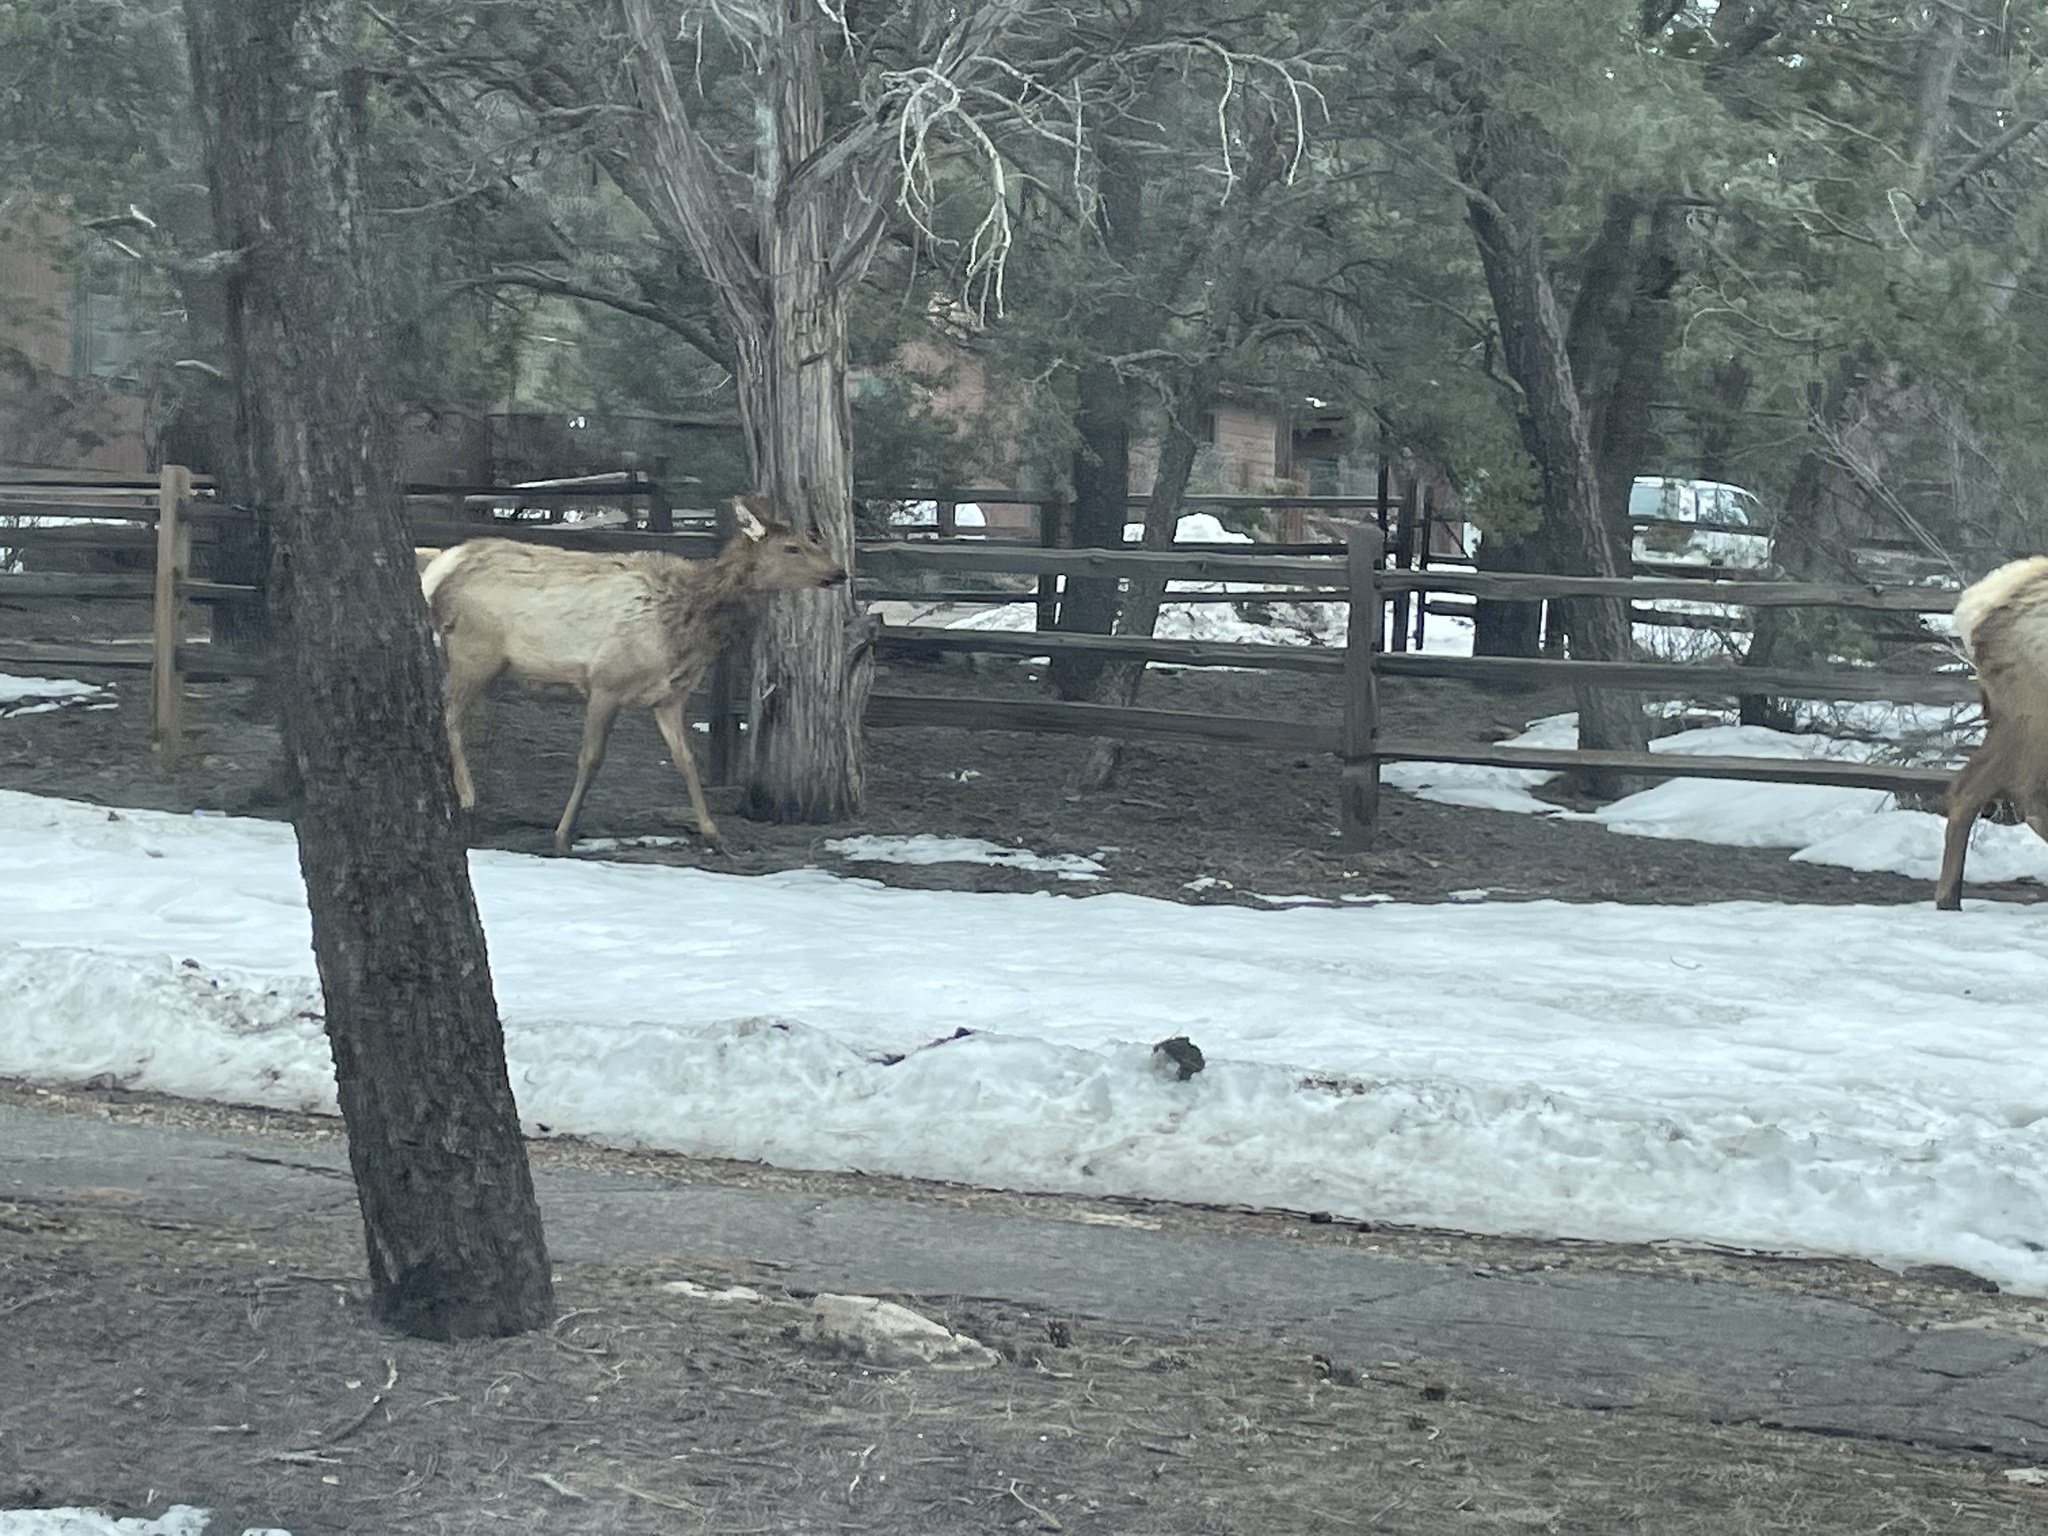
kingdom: Animalia
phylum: Chordata
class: Mammalia
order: Artiodactyla
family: Cervidae
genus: Cervus
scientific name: Cervus elaphus
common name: Red deer
